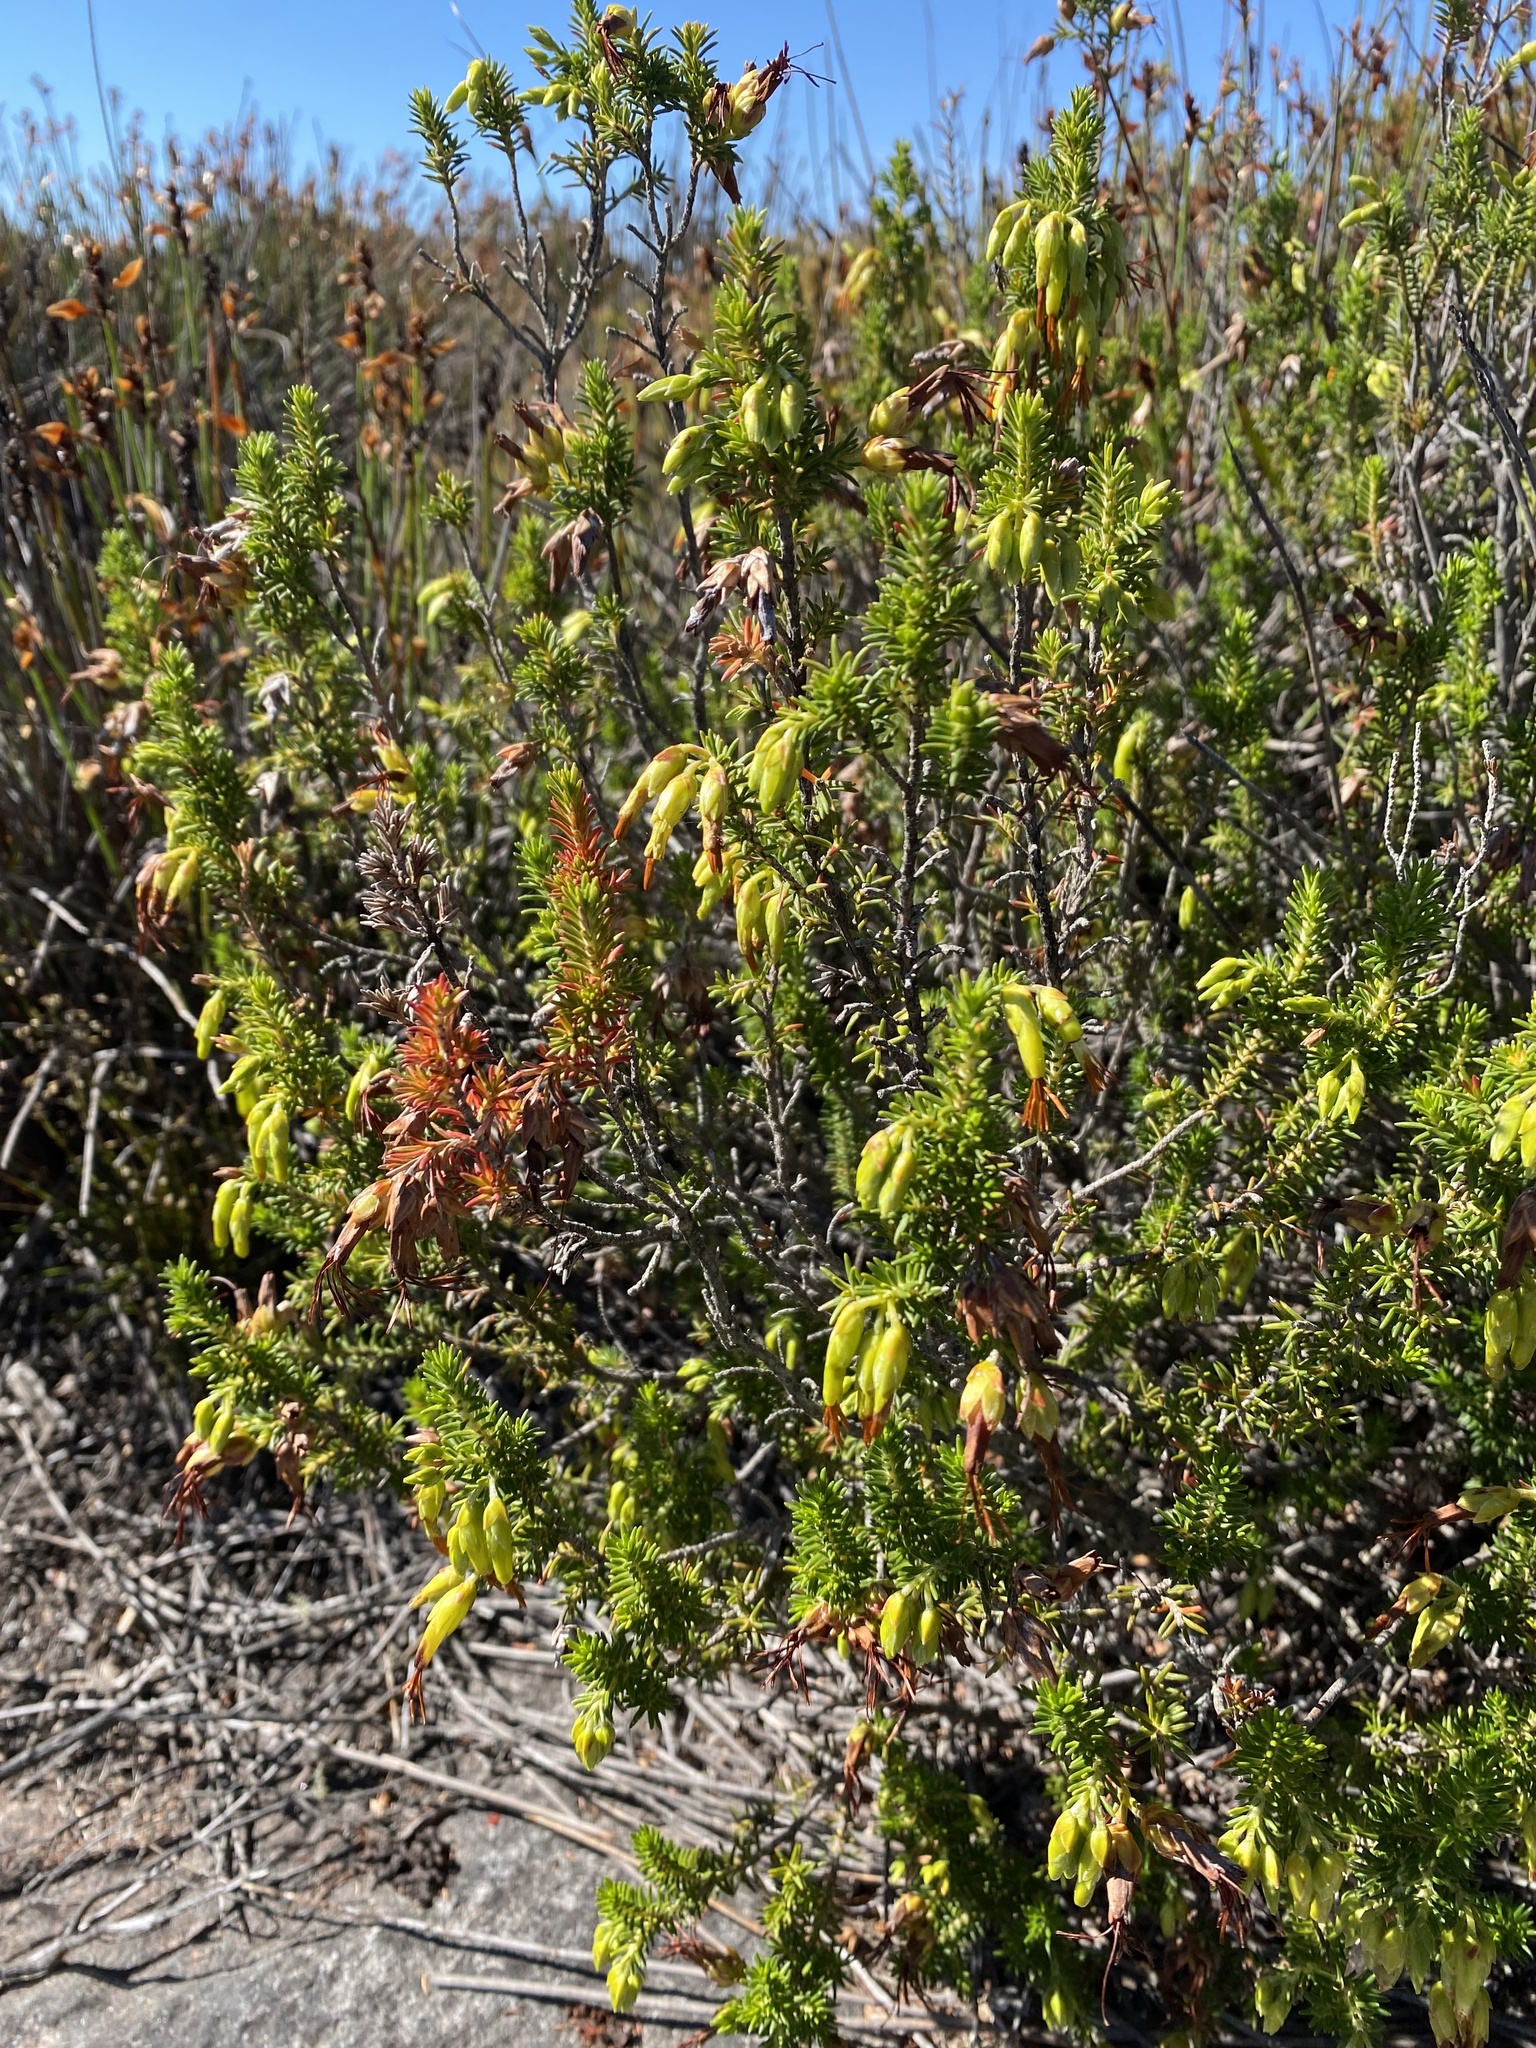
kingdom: Plantae
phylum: Tracheophyta
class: Magnoliopsida
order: Ericales
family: Ericaceae
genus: Erica
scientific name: Erica coccinea
